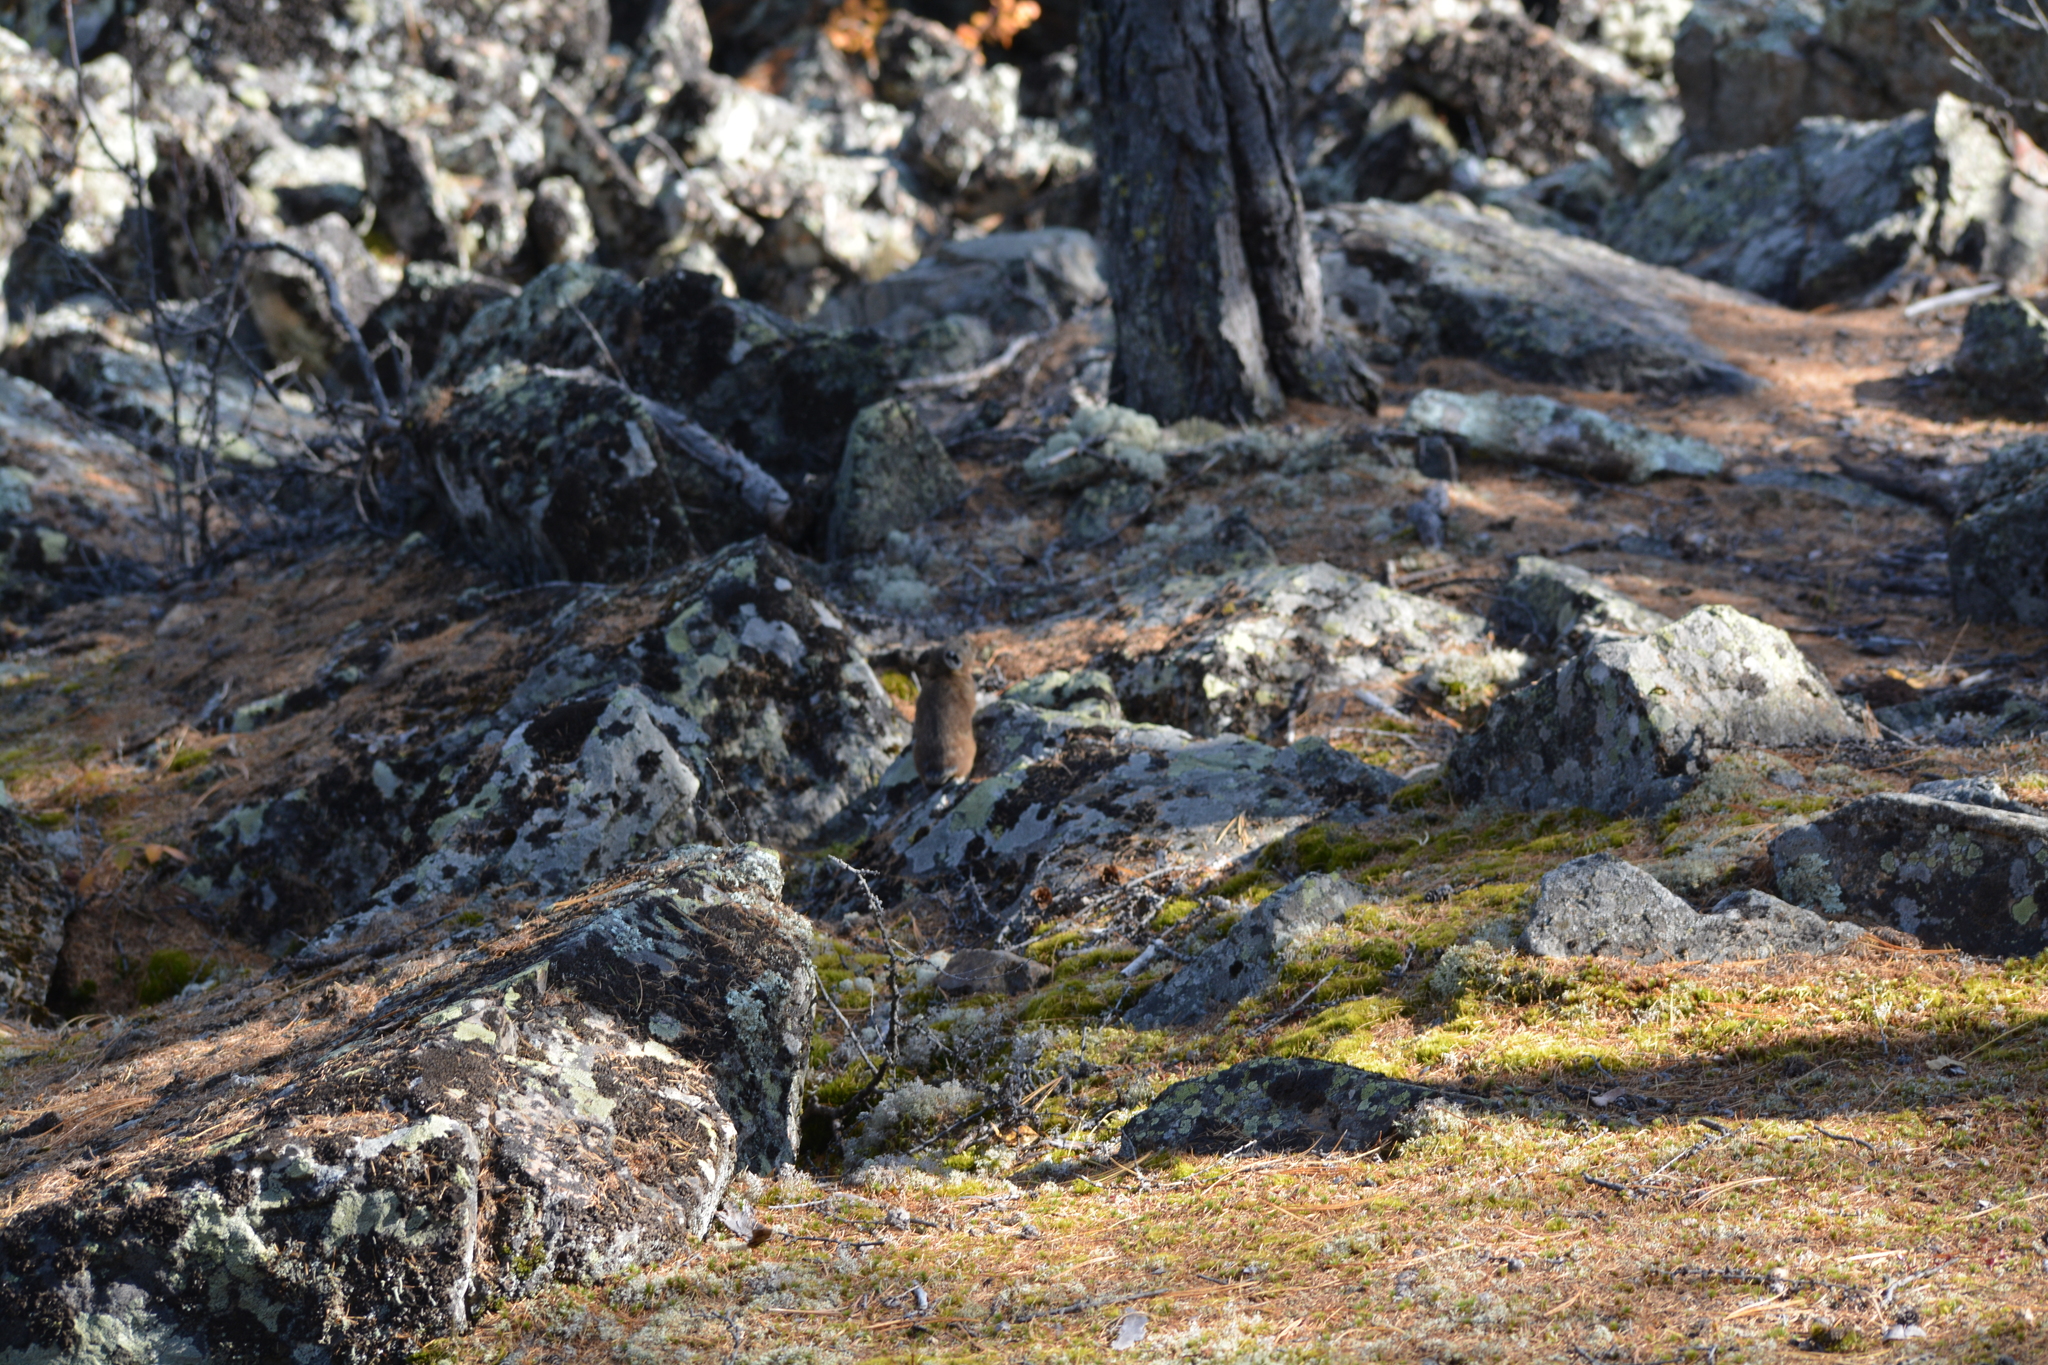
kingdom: Animalia
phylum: Chordata
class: Mammalia
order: Lagomorpha
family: Ochotonidae
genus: Ochotona
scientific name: Ochotona hyperborea
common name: Northern pika
